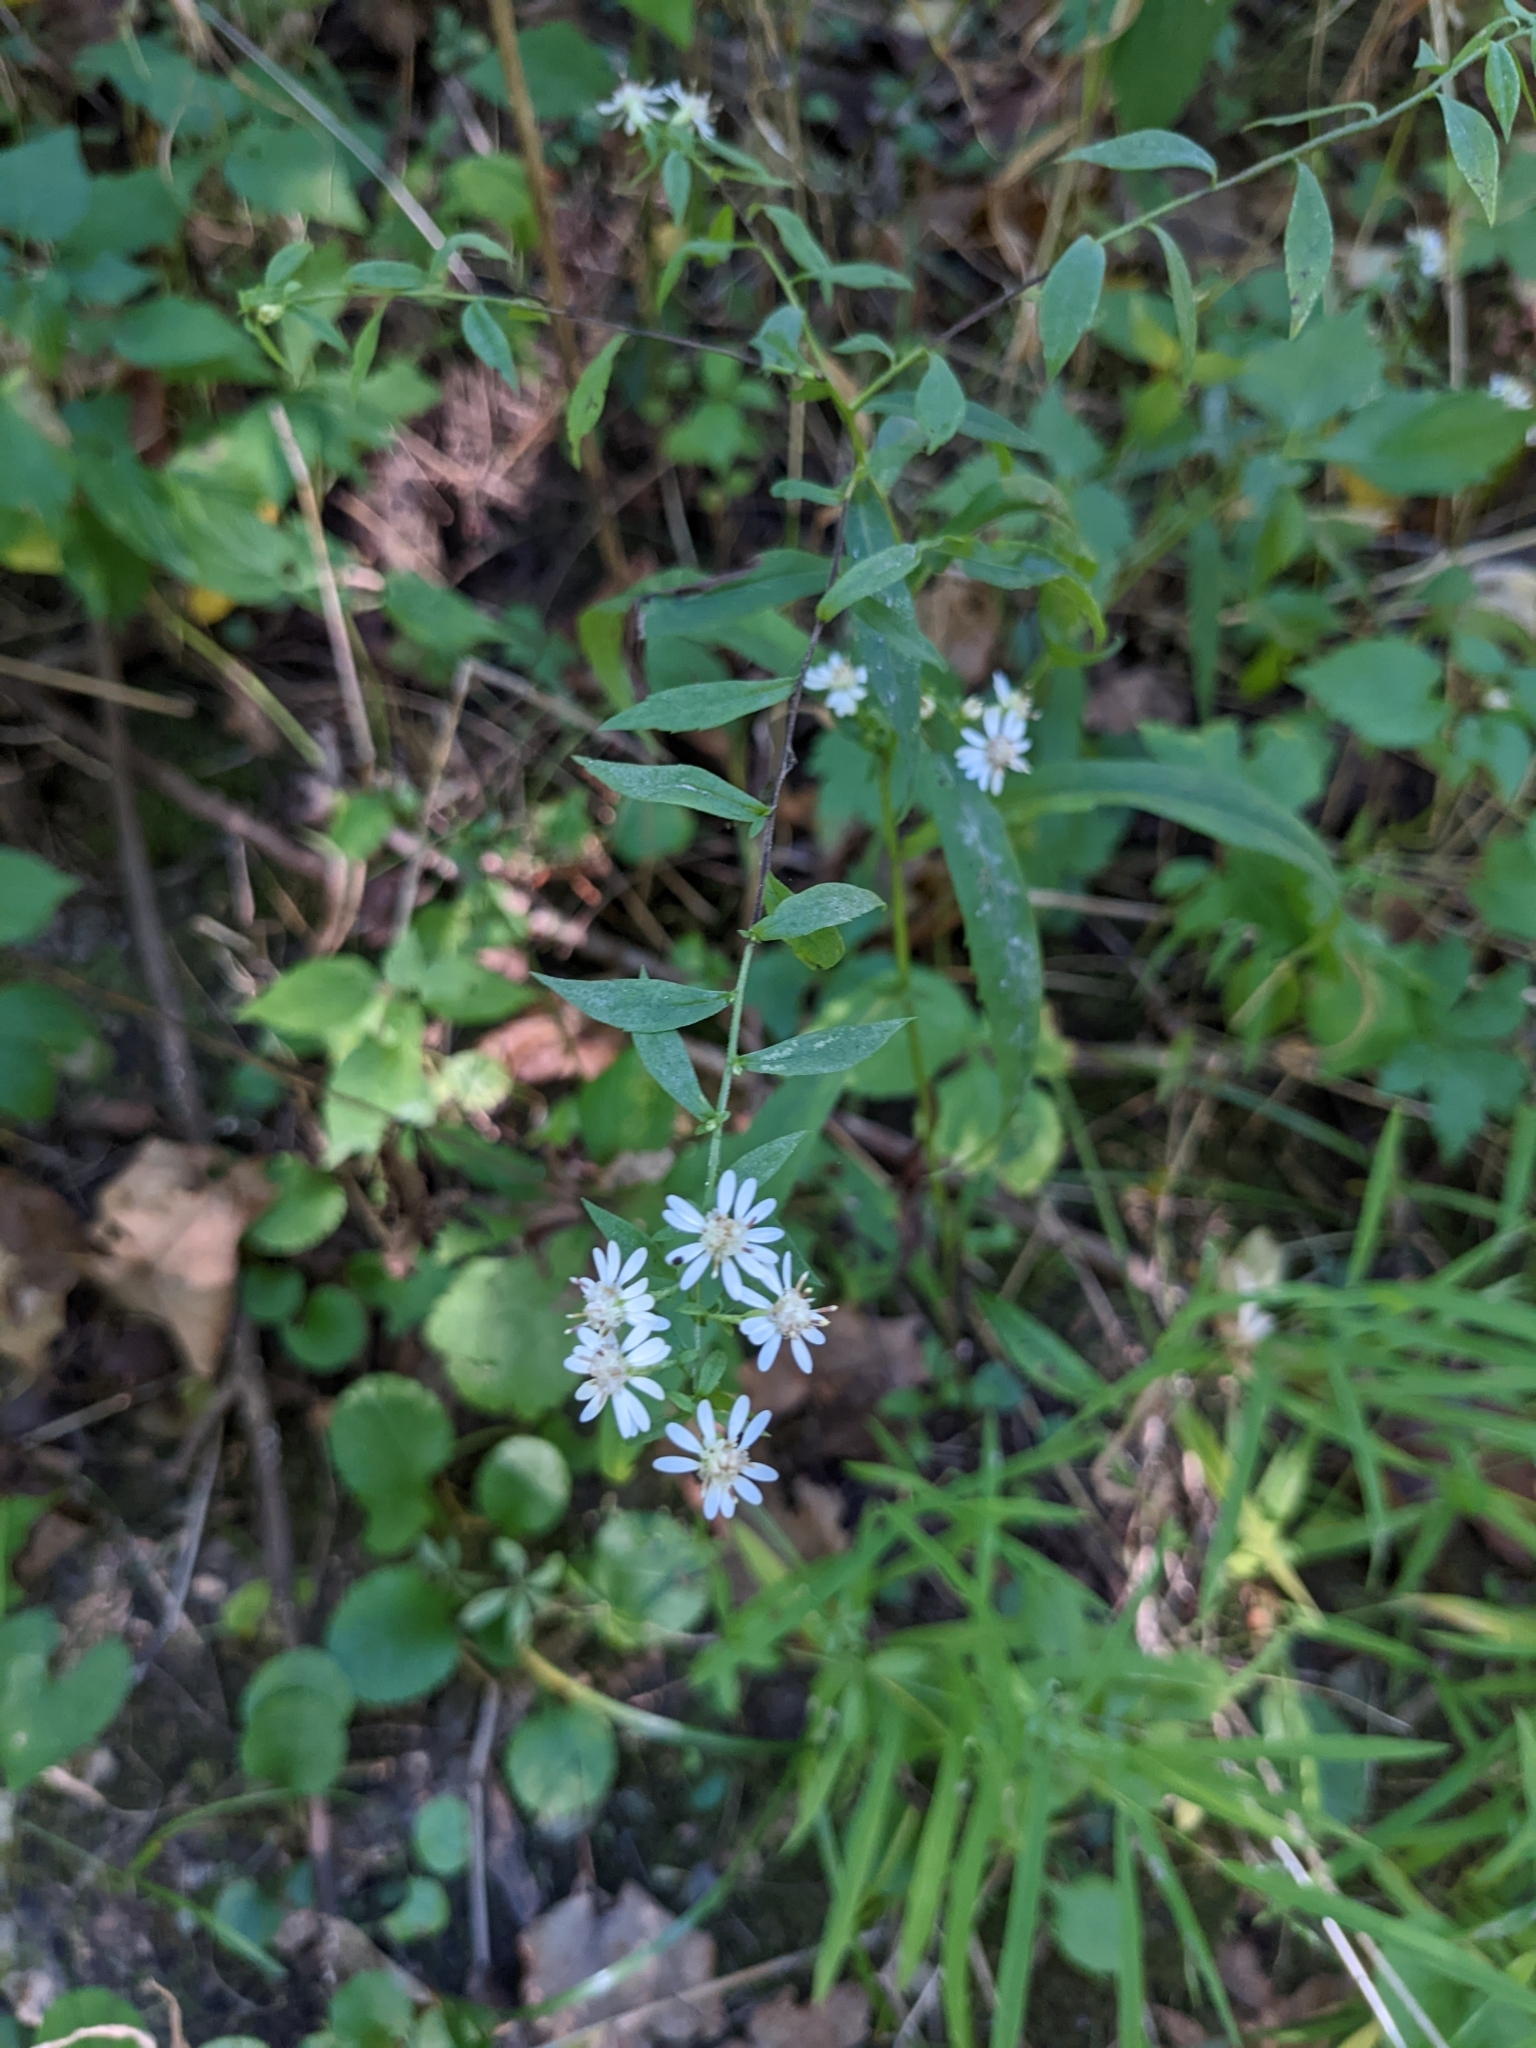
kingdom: Plantae
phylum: Tracheophyta
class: Magnoliopsida
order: Asterales
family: Asteraceae
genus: Symphyotrichum
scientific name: Symphyotrichum lateriflorum
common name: Calico aster
